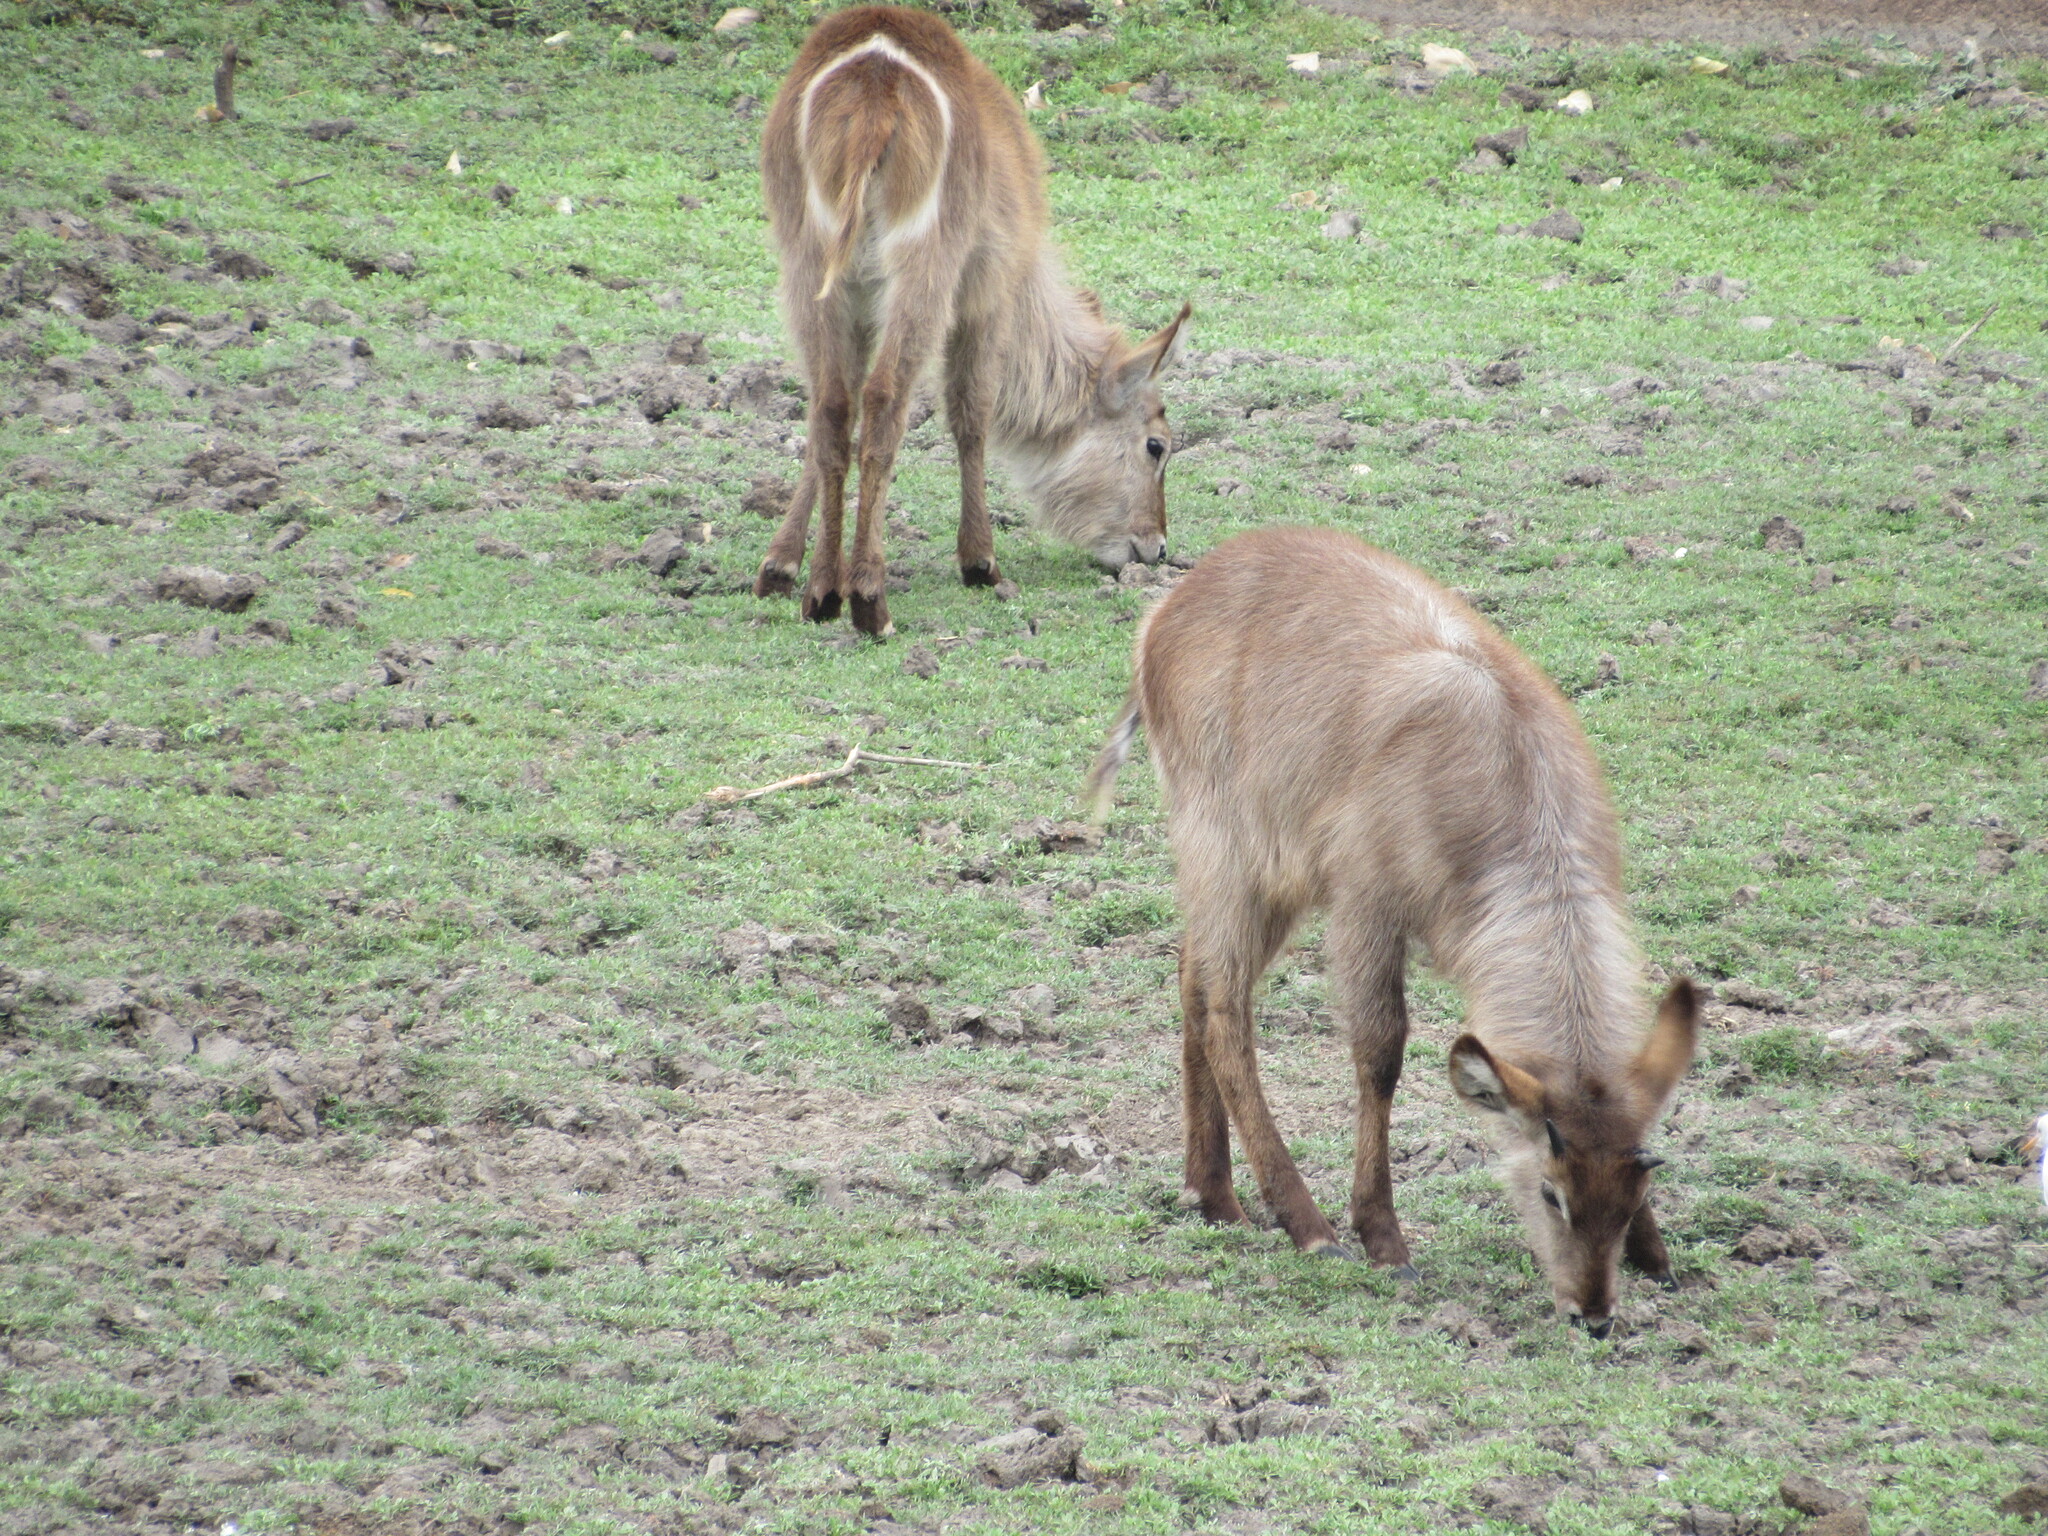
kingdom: Animalia
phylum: Chordata
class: Mammalia
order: Artiodactyla
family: Bovidae
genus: Kobus
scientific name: Kobus ellipsiprymnus
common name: Waterbuck
